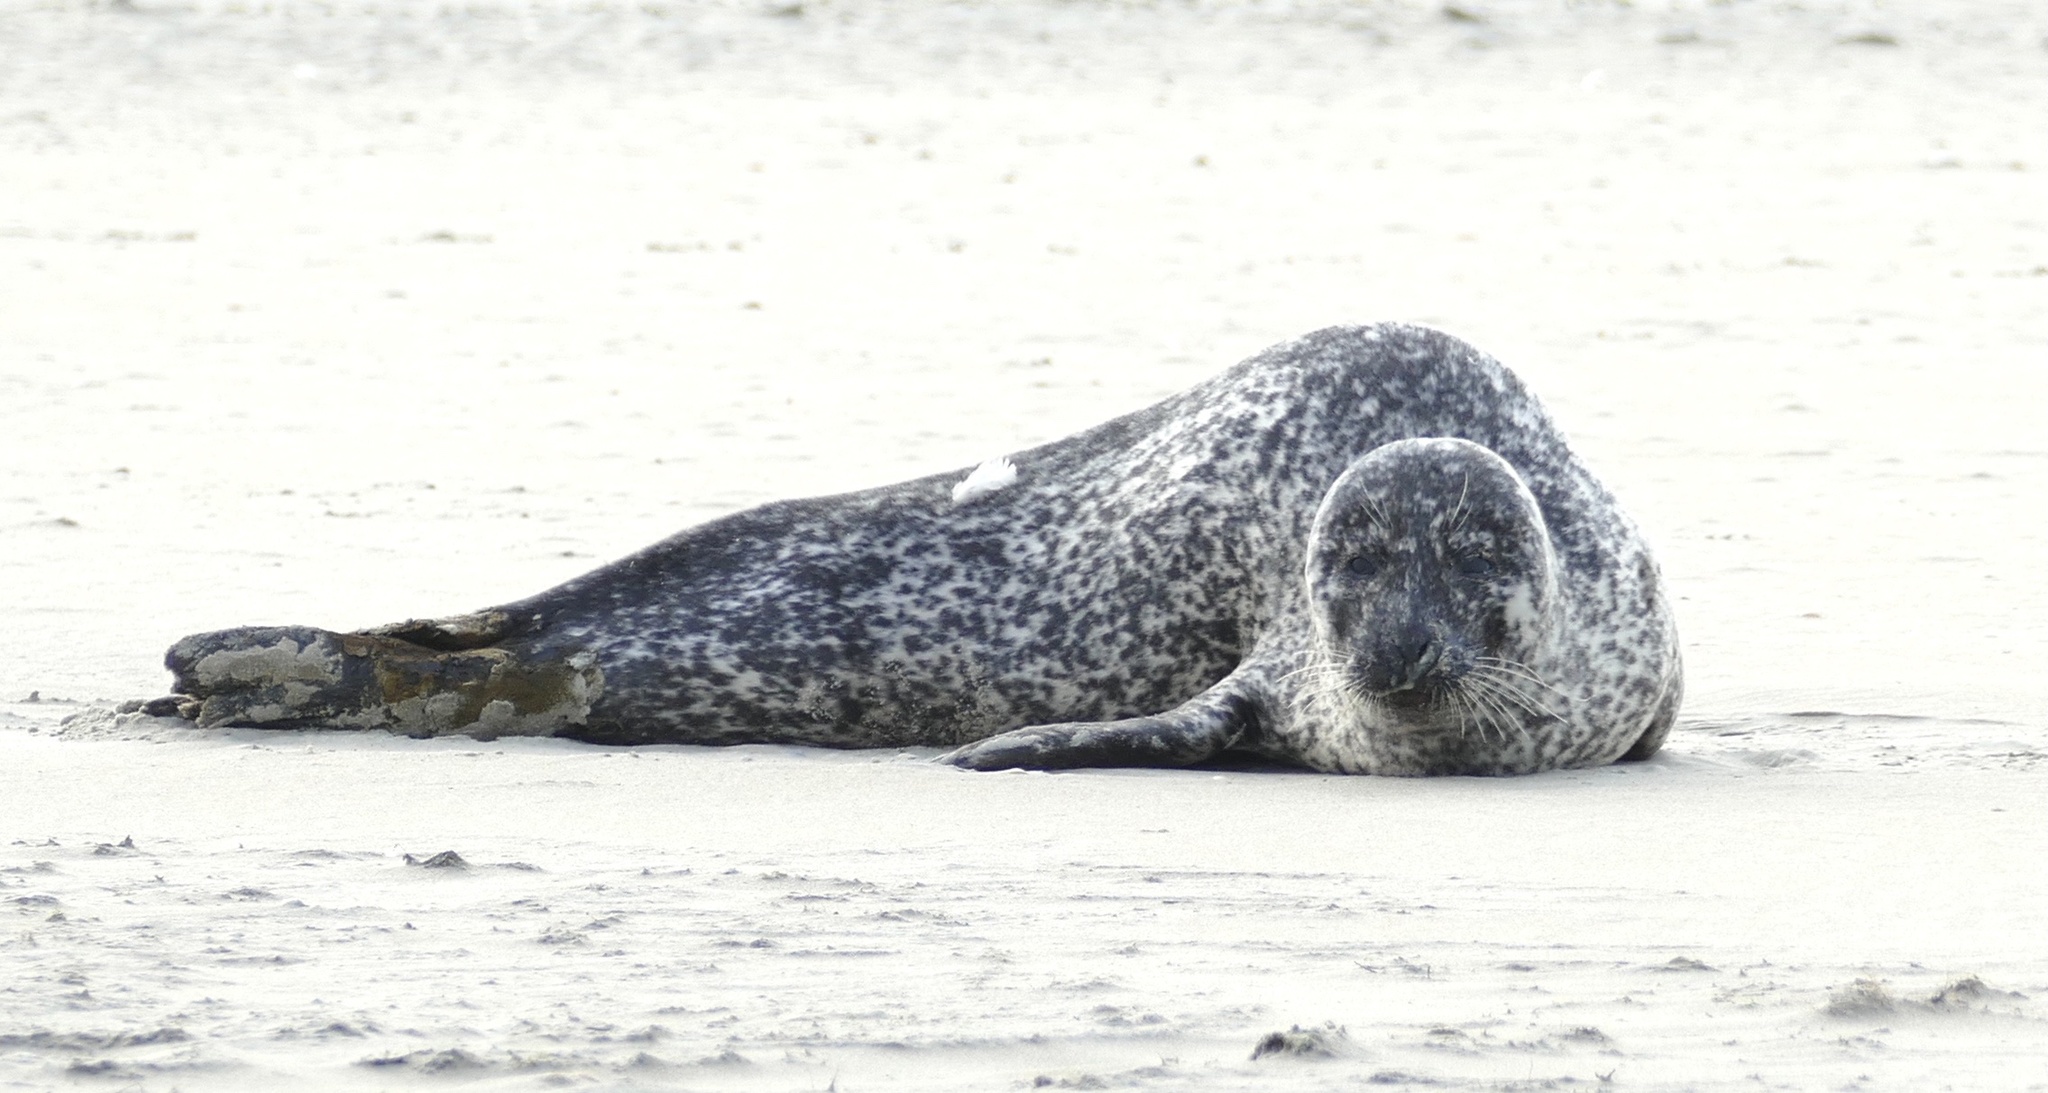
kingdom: Animalia
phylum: Chordata
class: Mammalia
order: Carnivora
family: Phocidae
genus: Phoca
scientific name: Phoca vitulina
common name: Harbor seal
